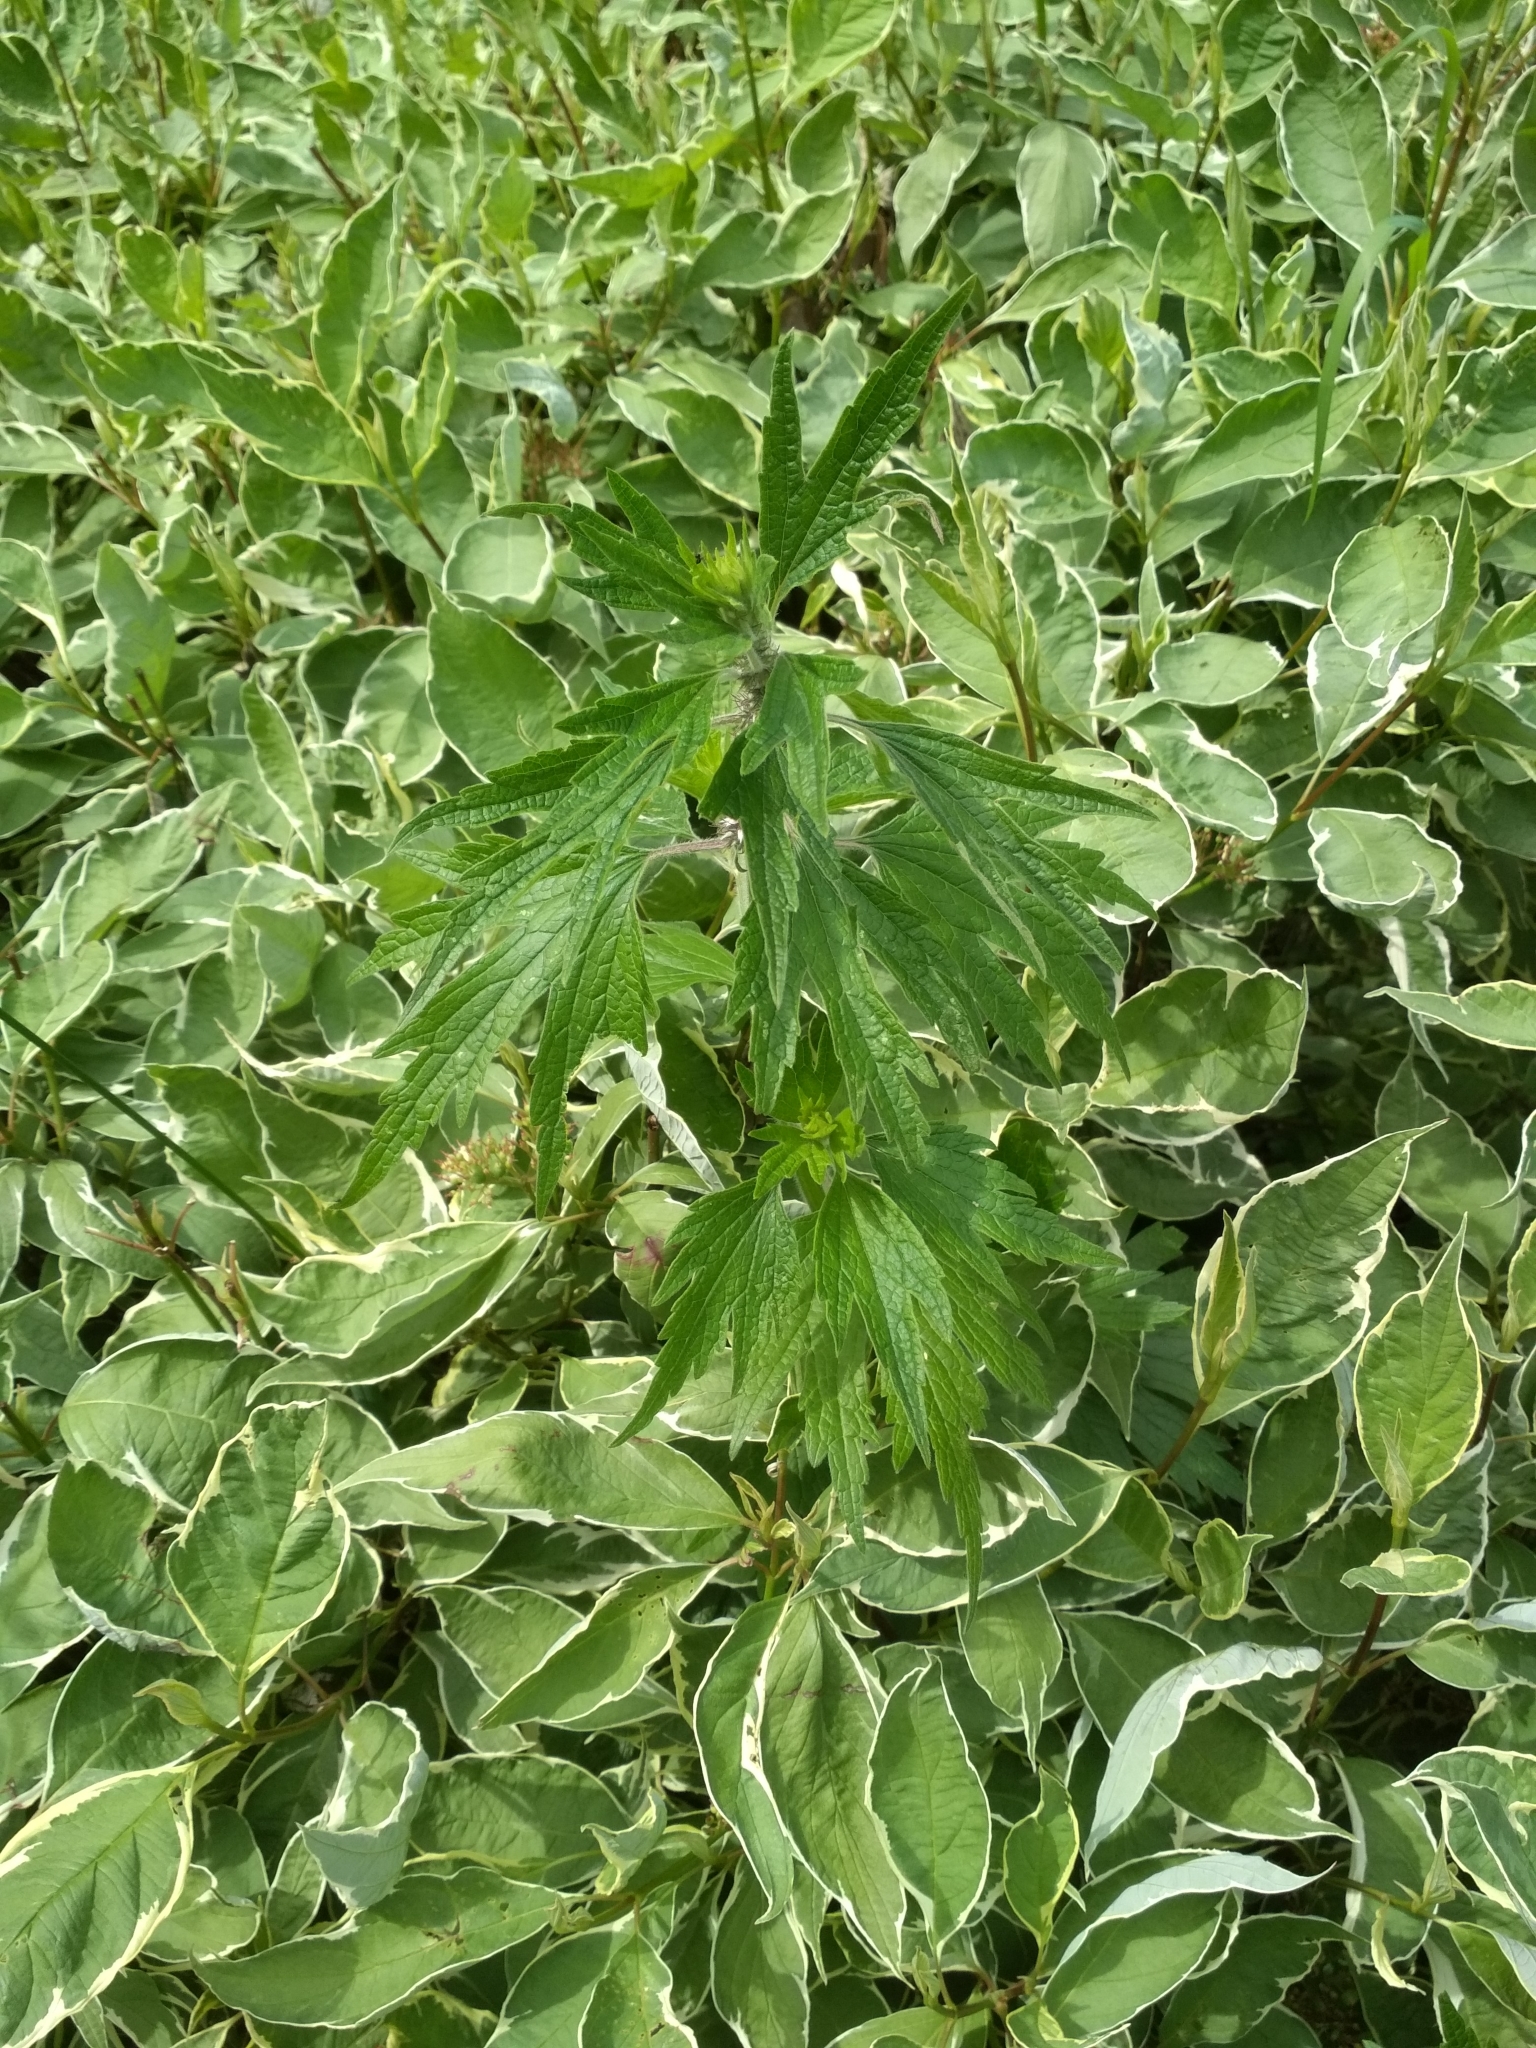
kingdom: Plantae
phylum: Tracheophyta
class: Magnoliopsida
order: Lamiales
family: Lamiaceae
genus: Leonurus
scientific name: Leonurus quinquelobatus
